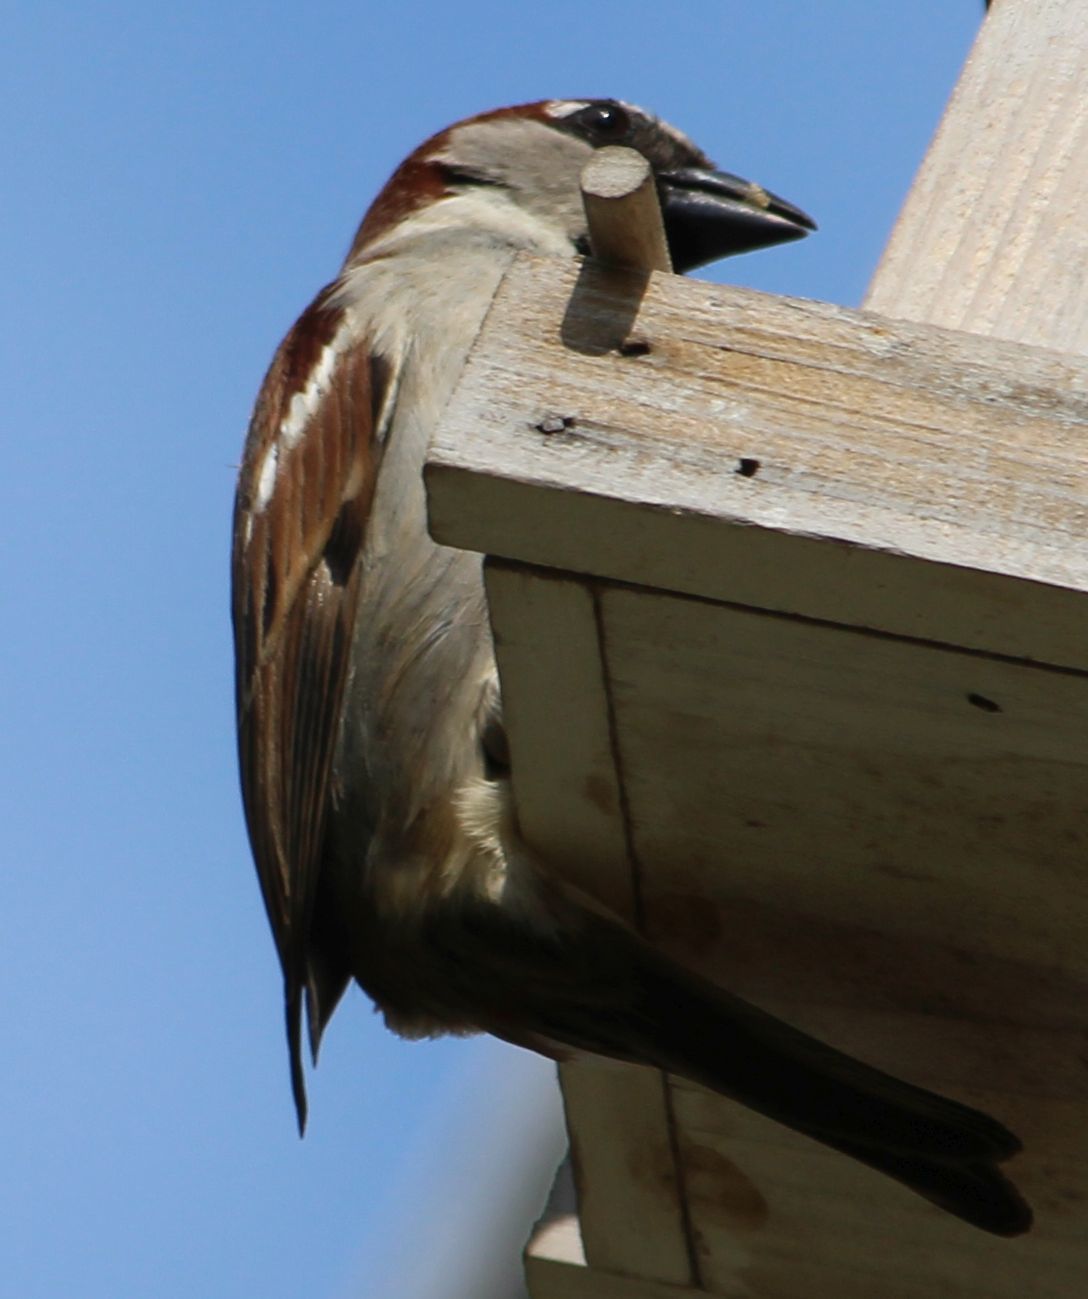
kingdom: Animalia
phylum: Chordata
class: Aves
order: Passeriformes
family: Passeridae
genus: Passer
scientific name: Passer domesticus
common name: House sparrow
